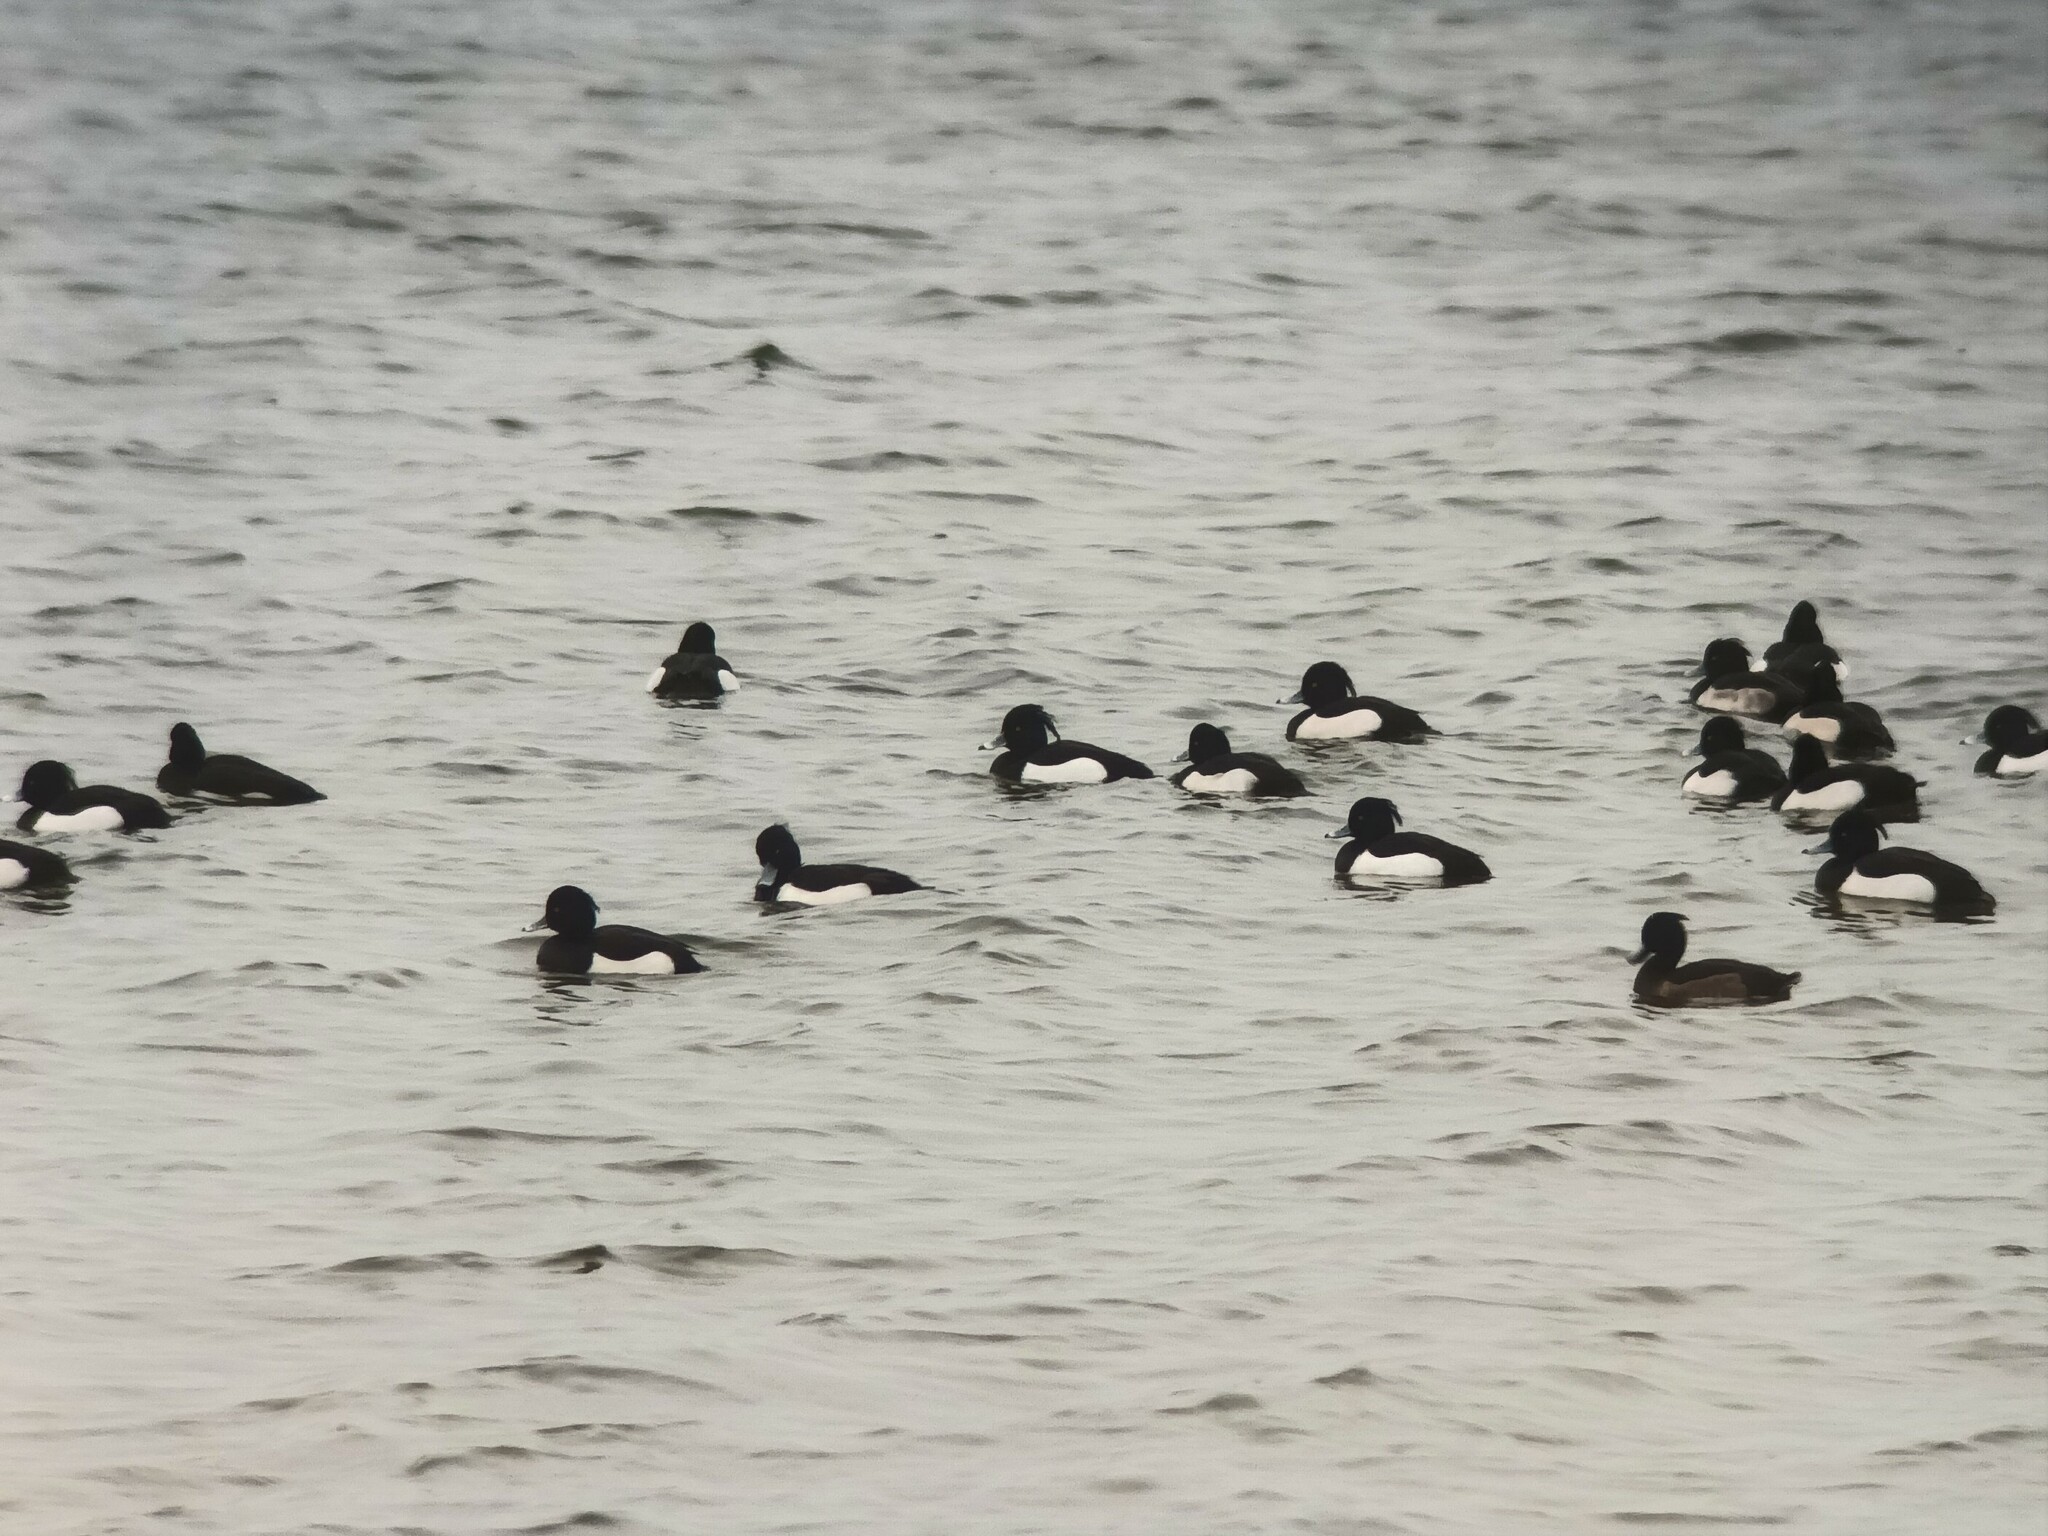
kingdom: Animalia
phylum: Chordata
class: Aves
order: Anseriformes
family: Anatidae
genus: Aythya
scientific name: Aythya fuligula
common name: Tufted duck
